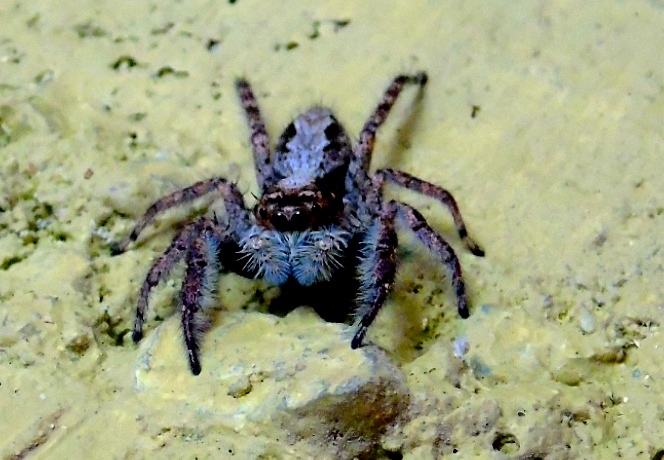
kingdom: Animalia
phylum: Arthropoda
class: Arachnida
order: Araneae
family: Salticidae
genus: Menemerus
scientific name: Menemerus bivittatus
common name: Gray wall jumper
